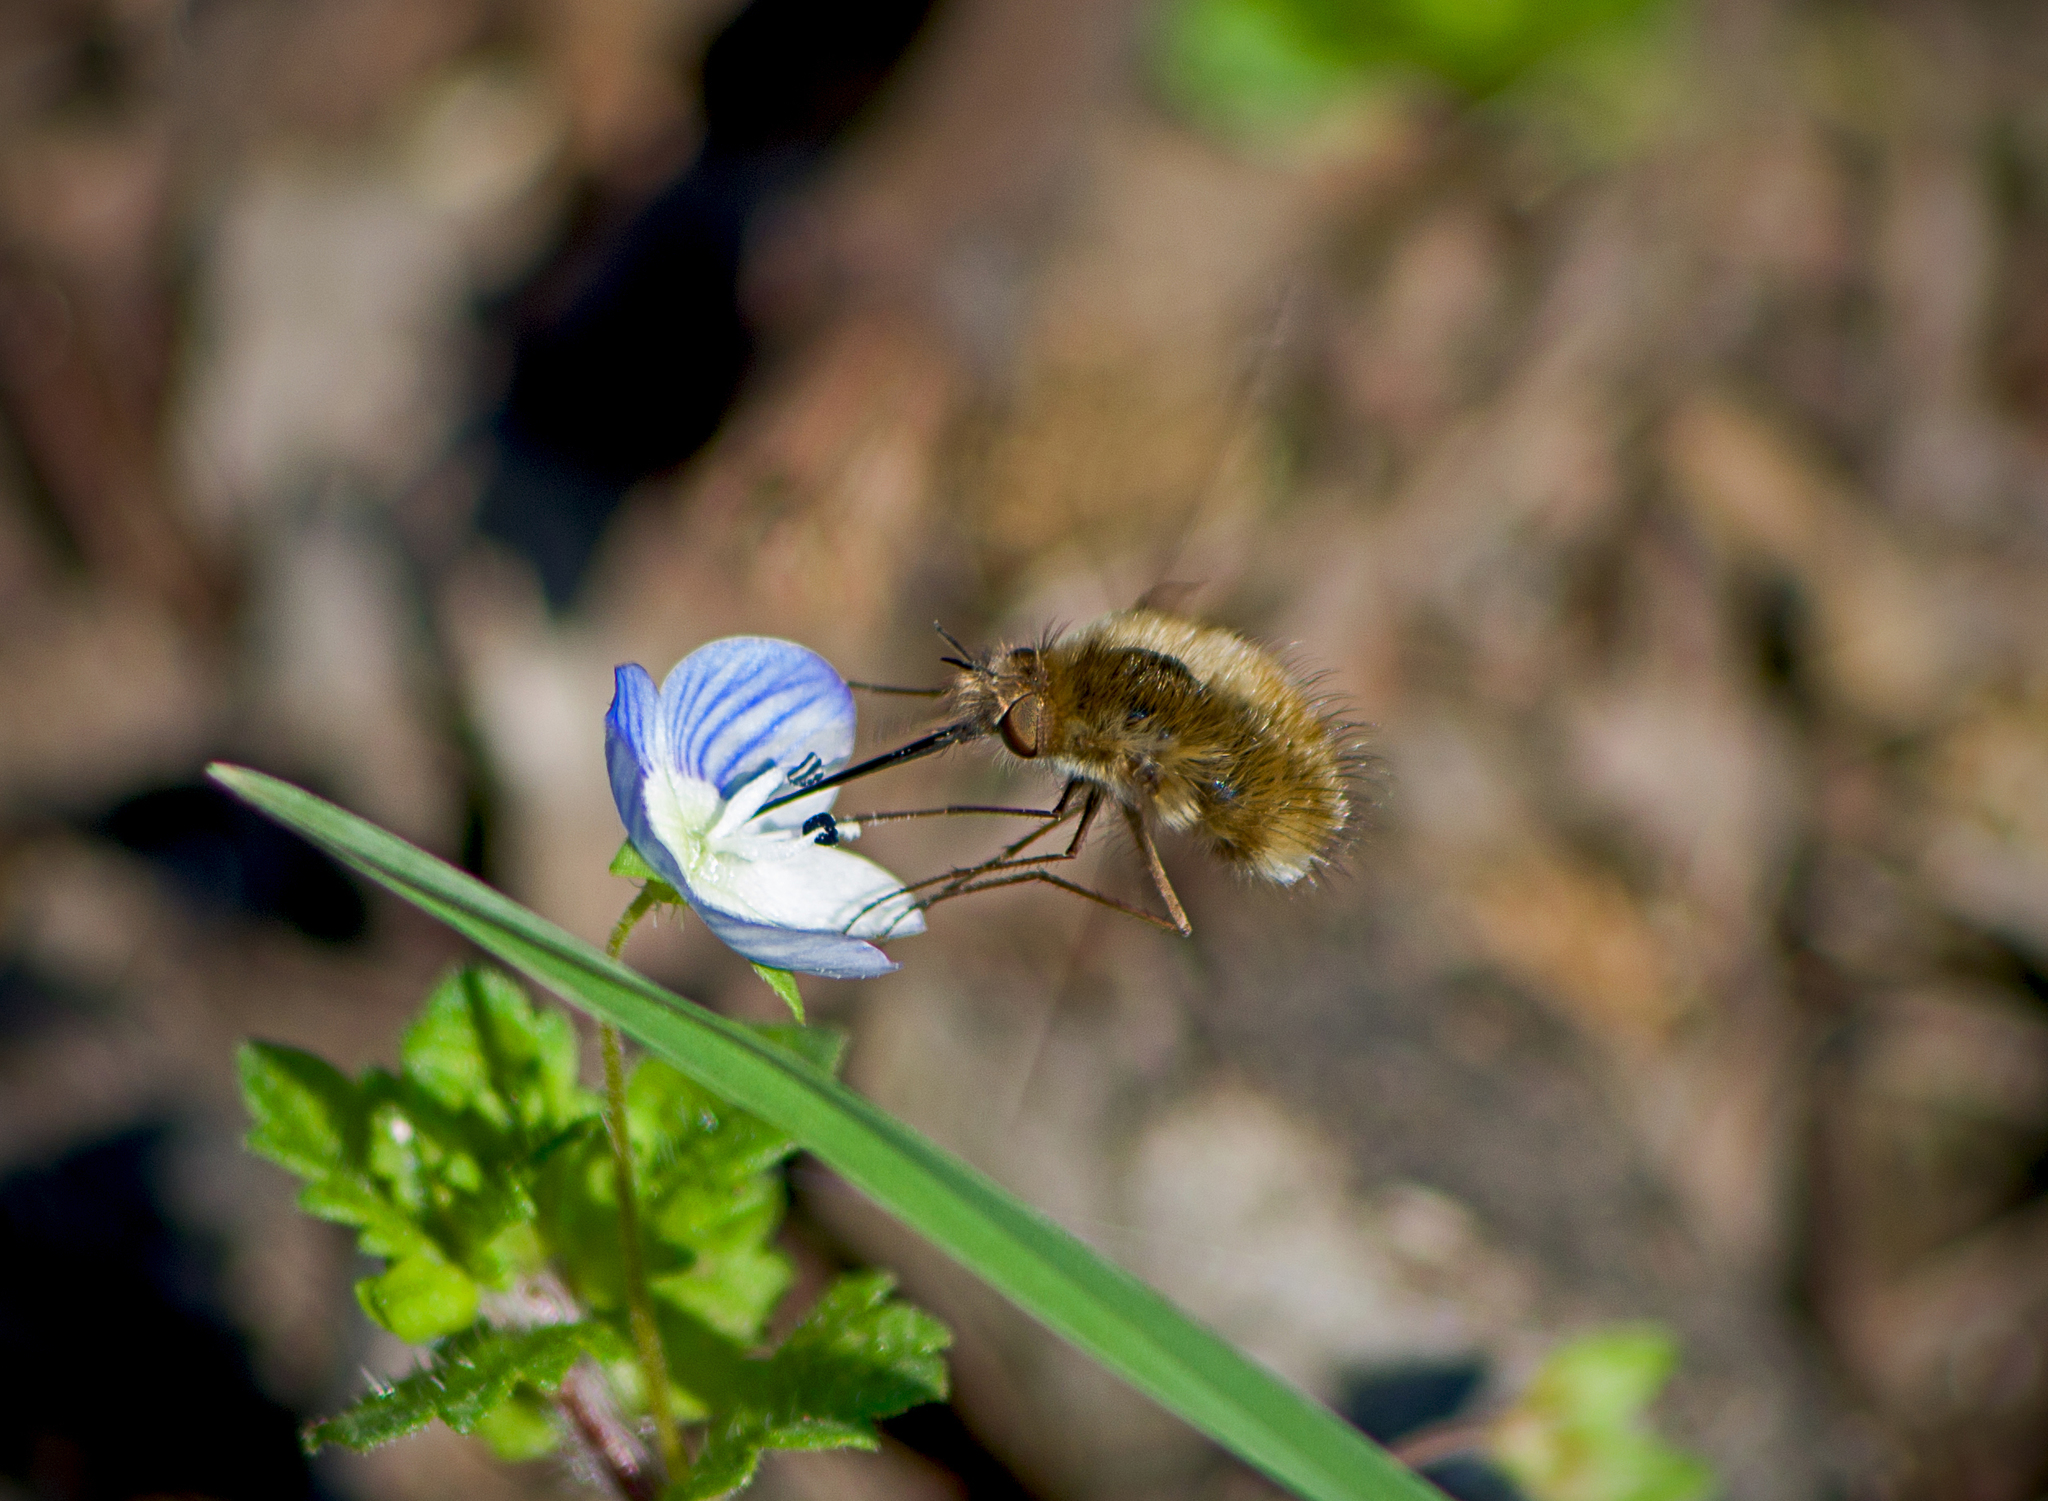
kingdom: Animalia
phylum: Arthropoda
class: Insecta
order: Diptera
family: Bombyliidae
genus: Bombylius
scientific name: Bombylius major
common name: Bee fly
